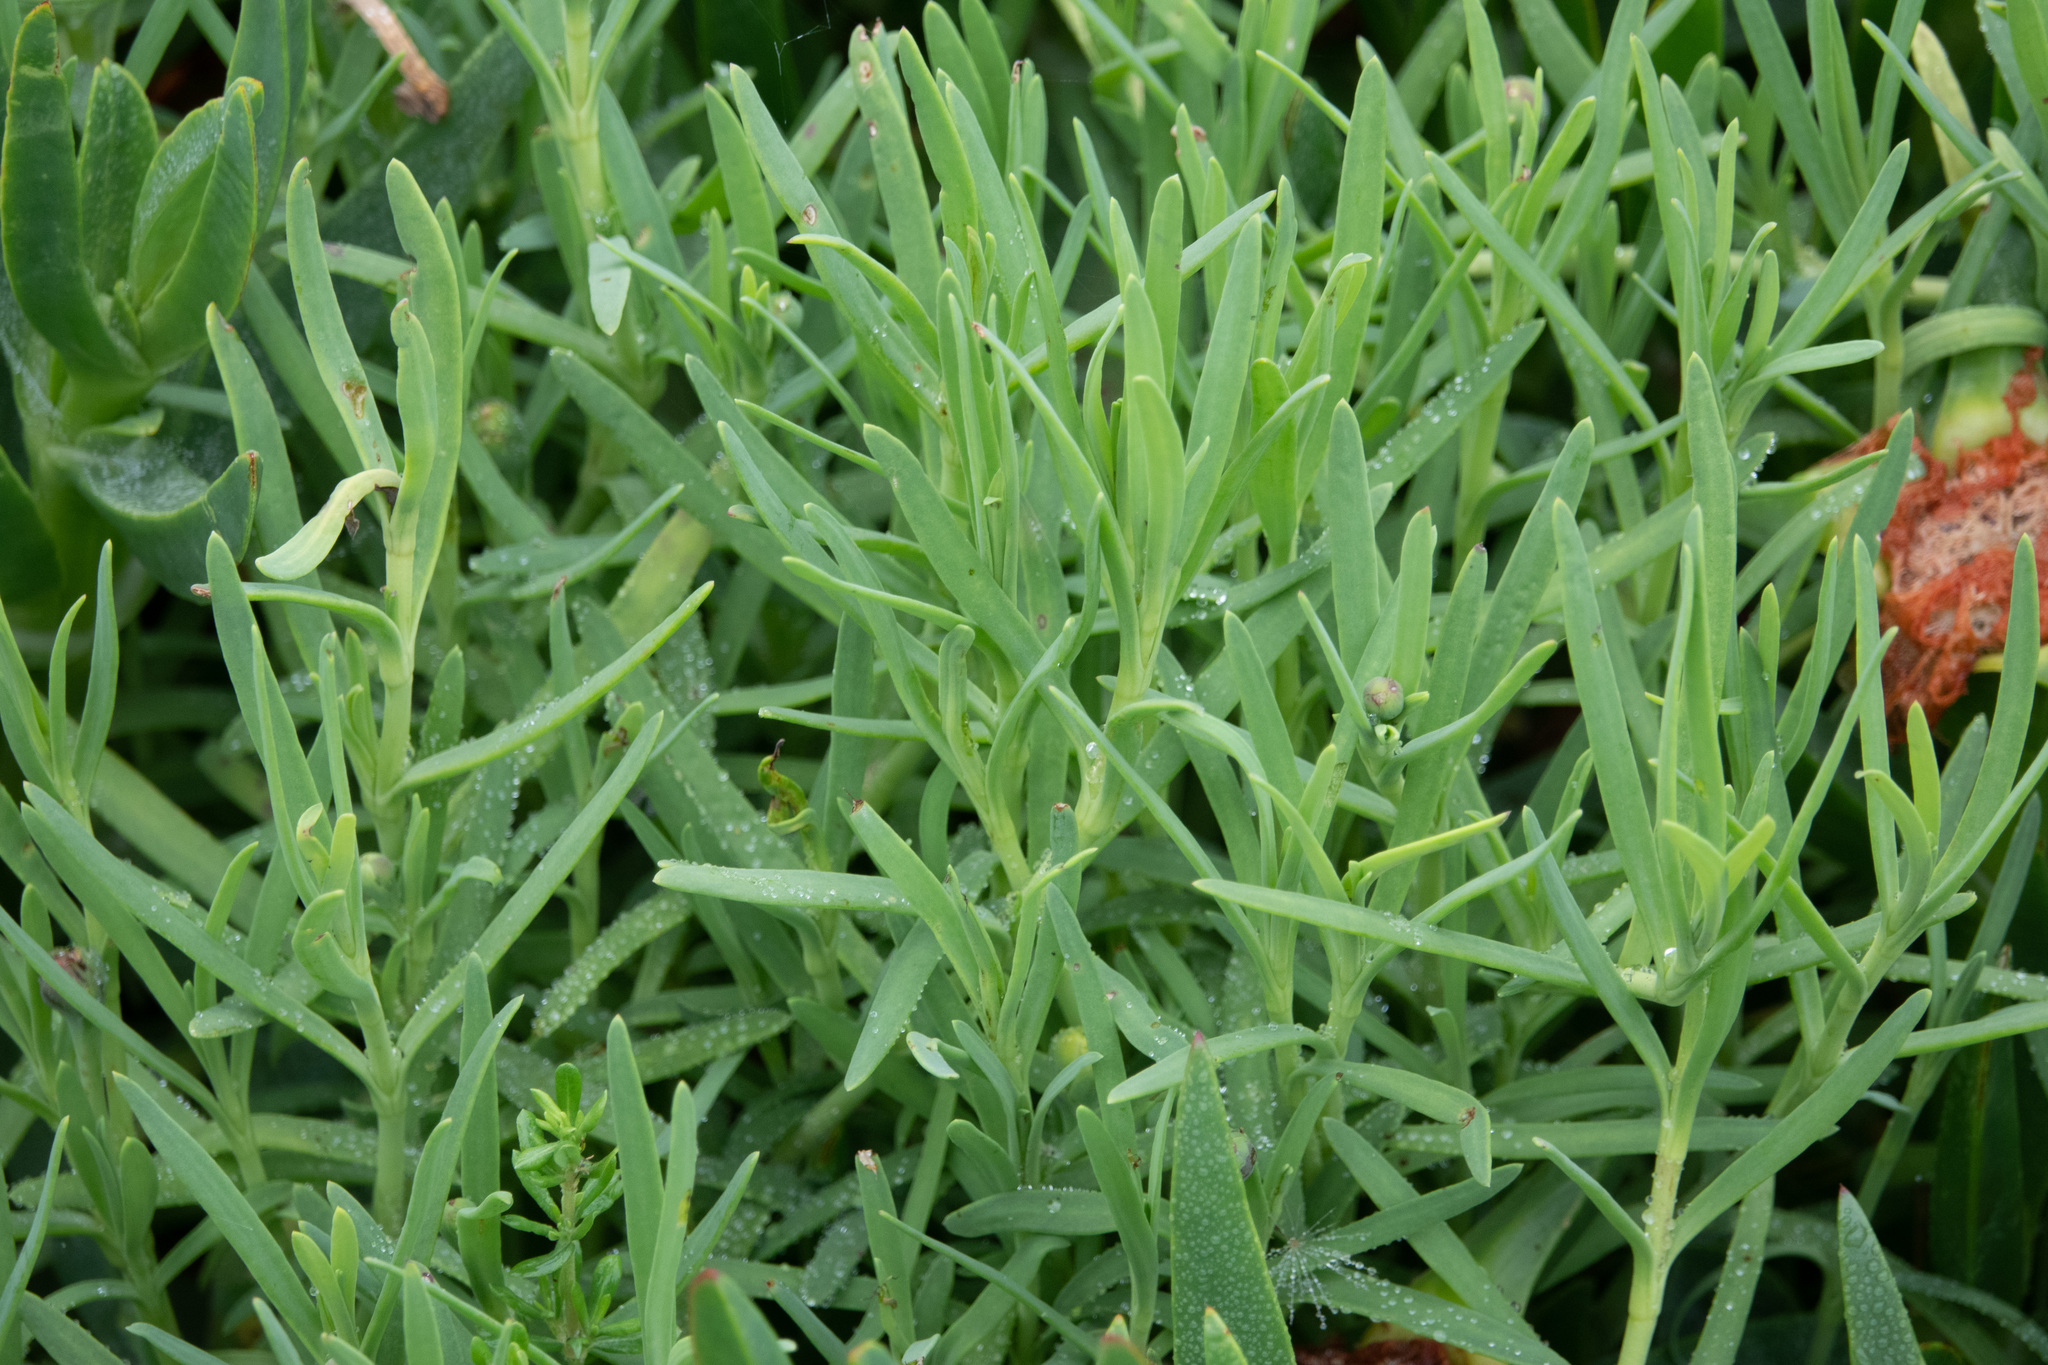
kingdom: Plantae
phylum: Tracheophyta
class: Magnoliopsida
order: Asterales
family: Asteraceae
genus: Jaumea
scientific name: Jaumea carnosa
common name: Fleshy jaumea
